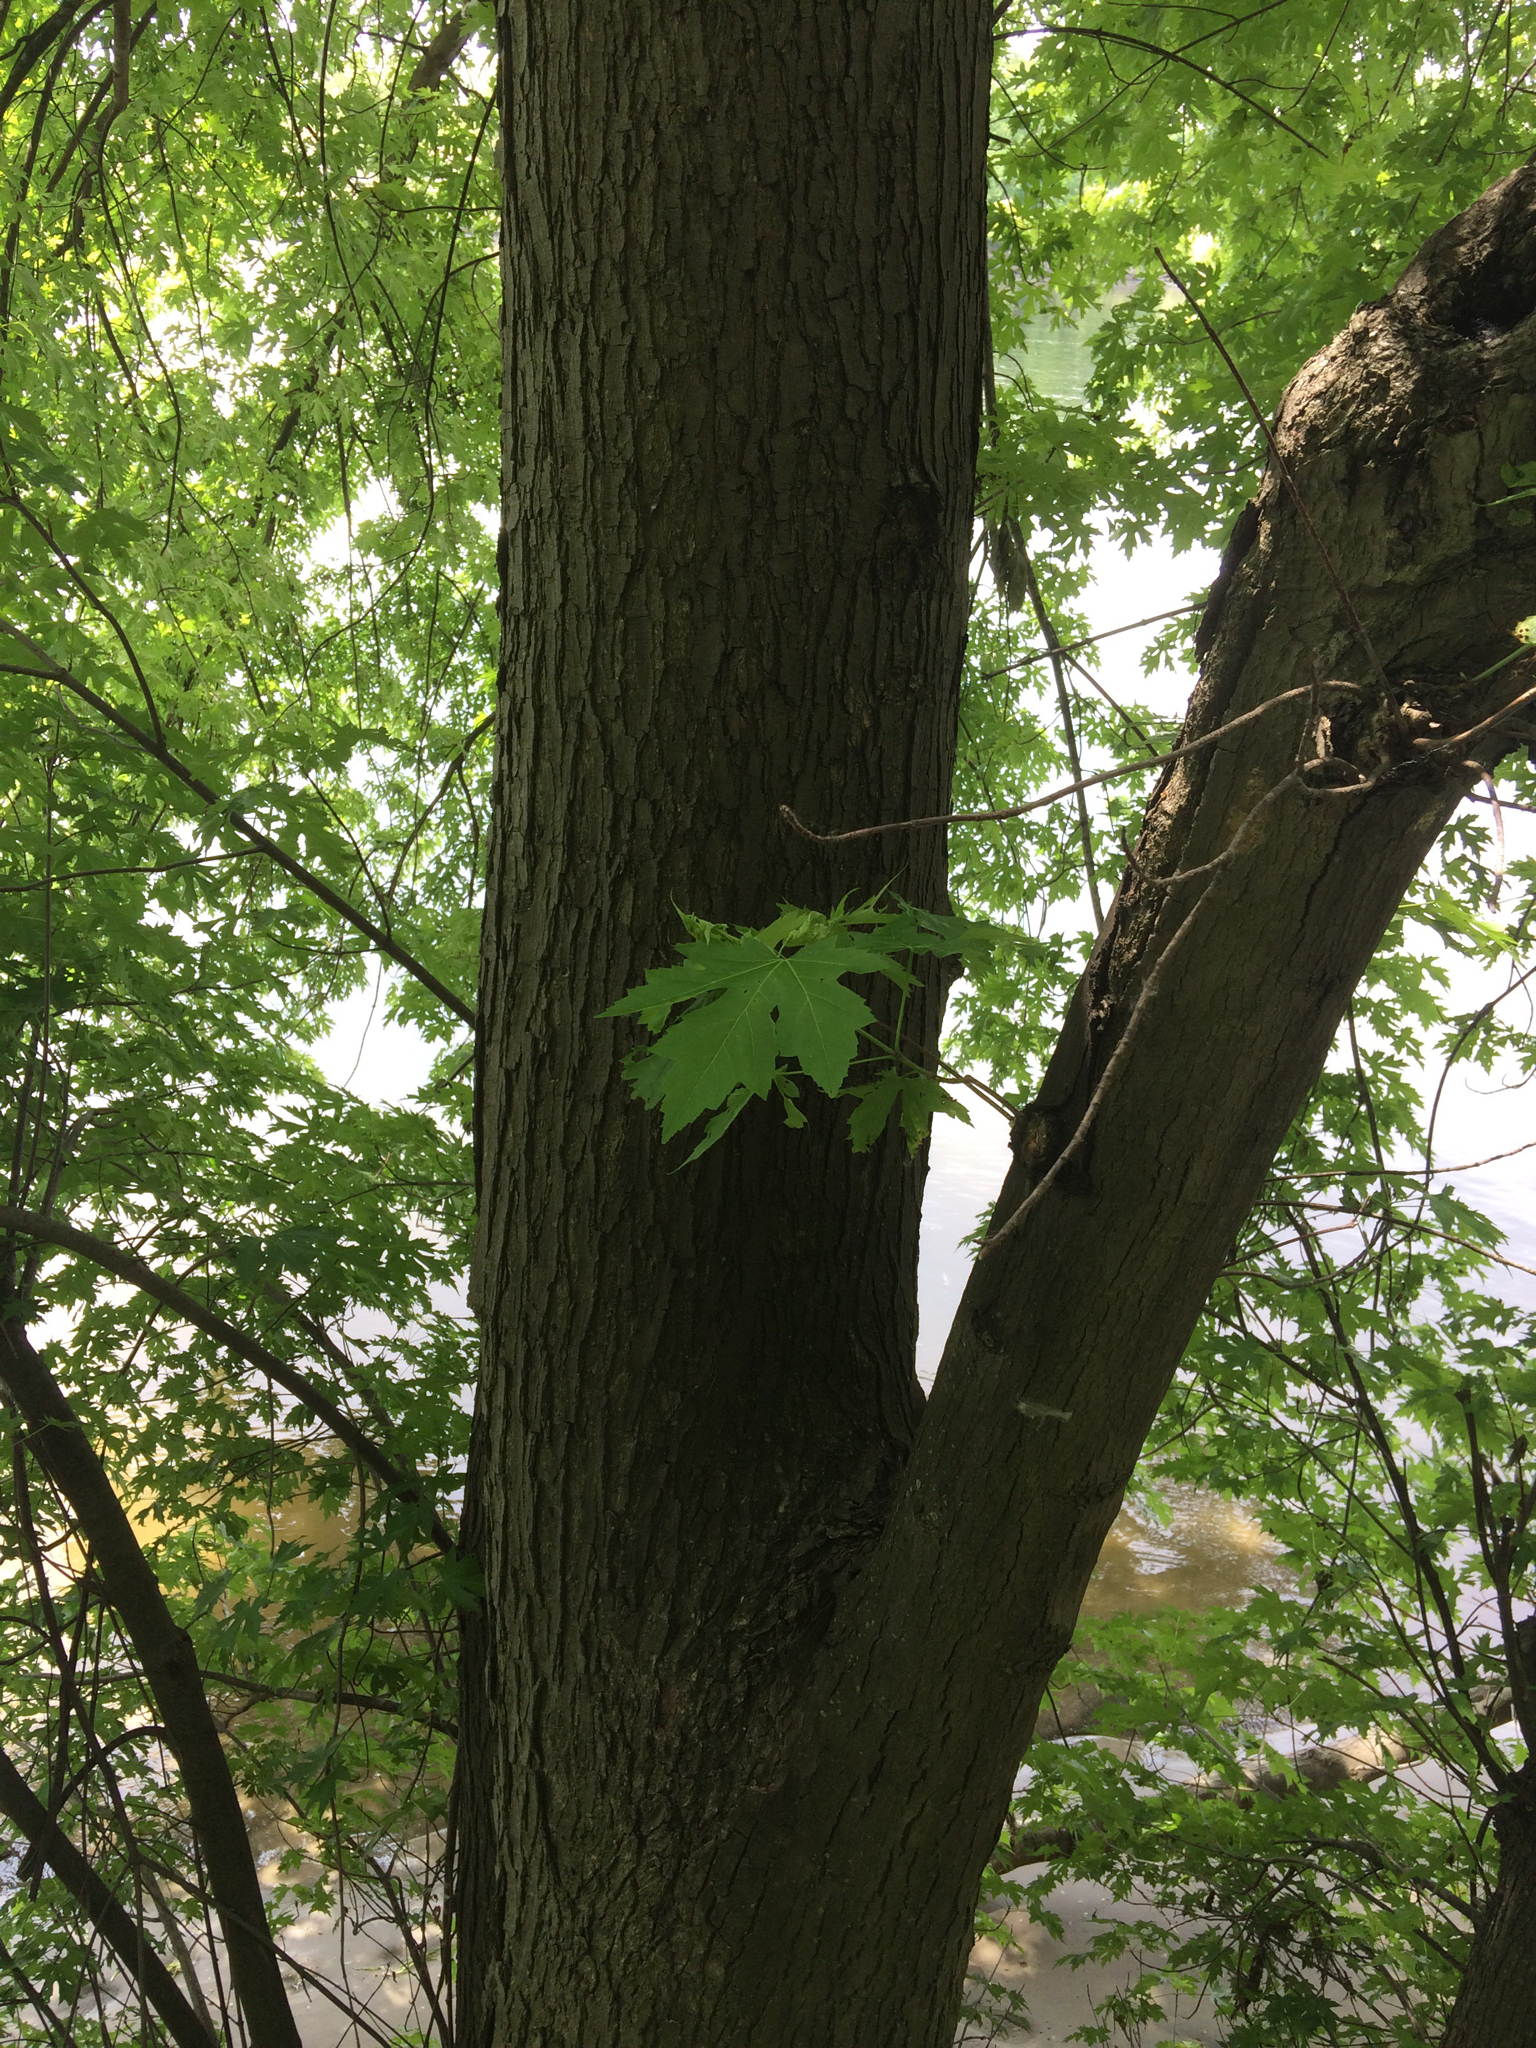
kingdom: Plantae
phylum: Tracheophyta
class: Magnoliopsida
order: Sapindales
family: Sapindaceae
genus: Acer
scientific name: Acer saccharinum
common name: Silver maple
